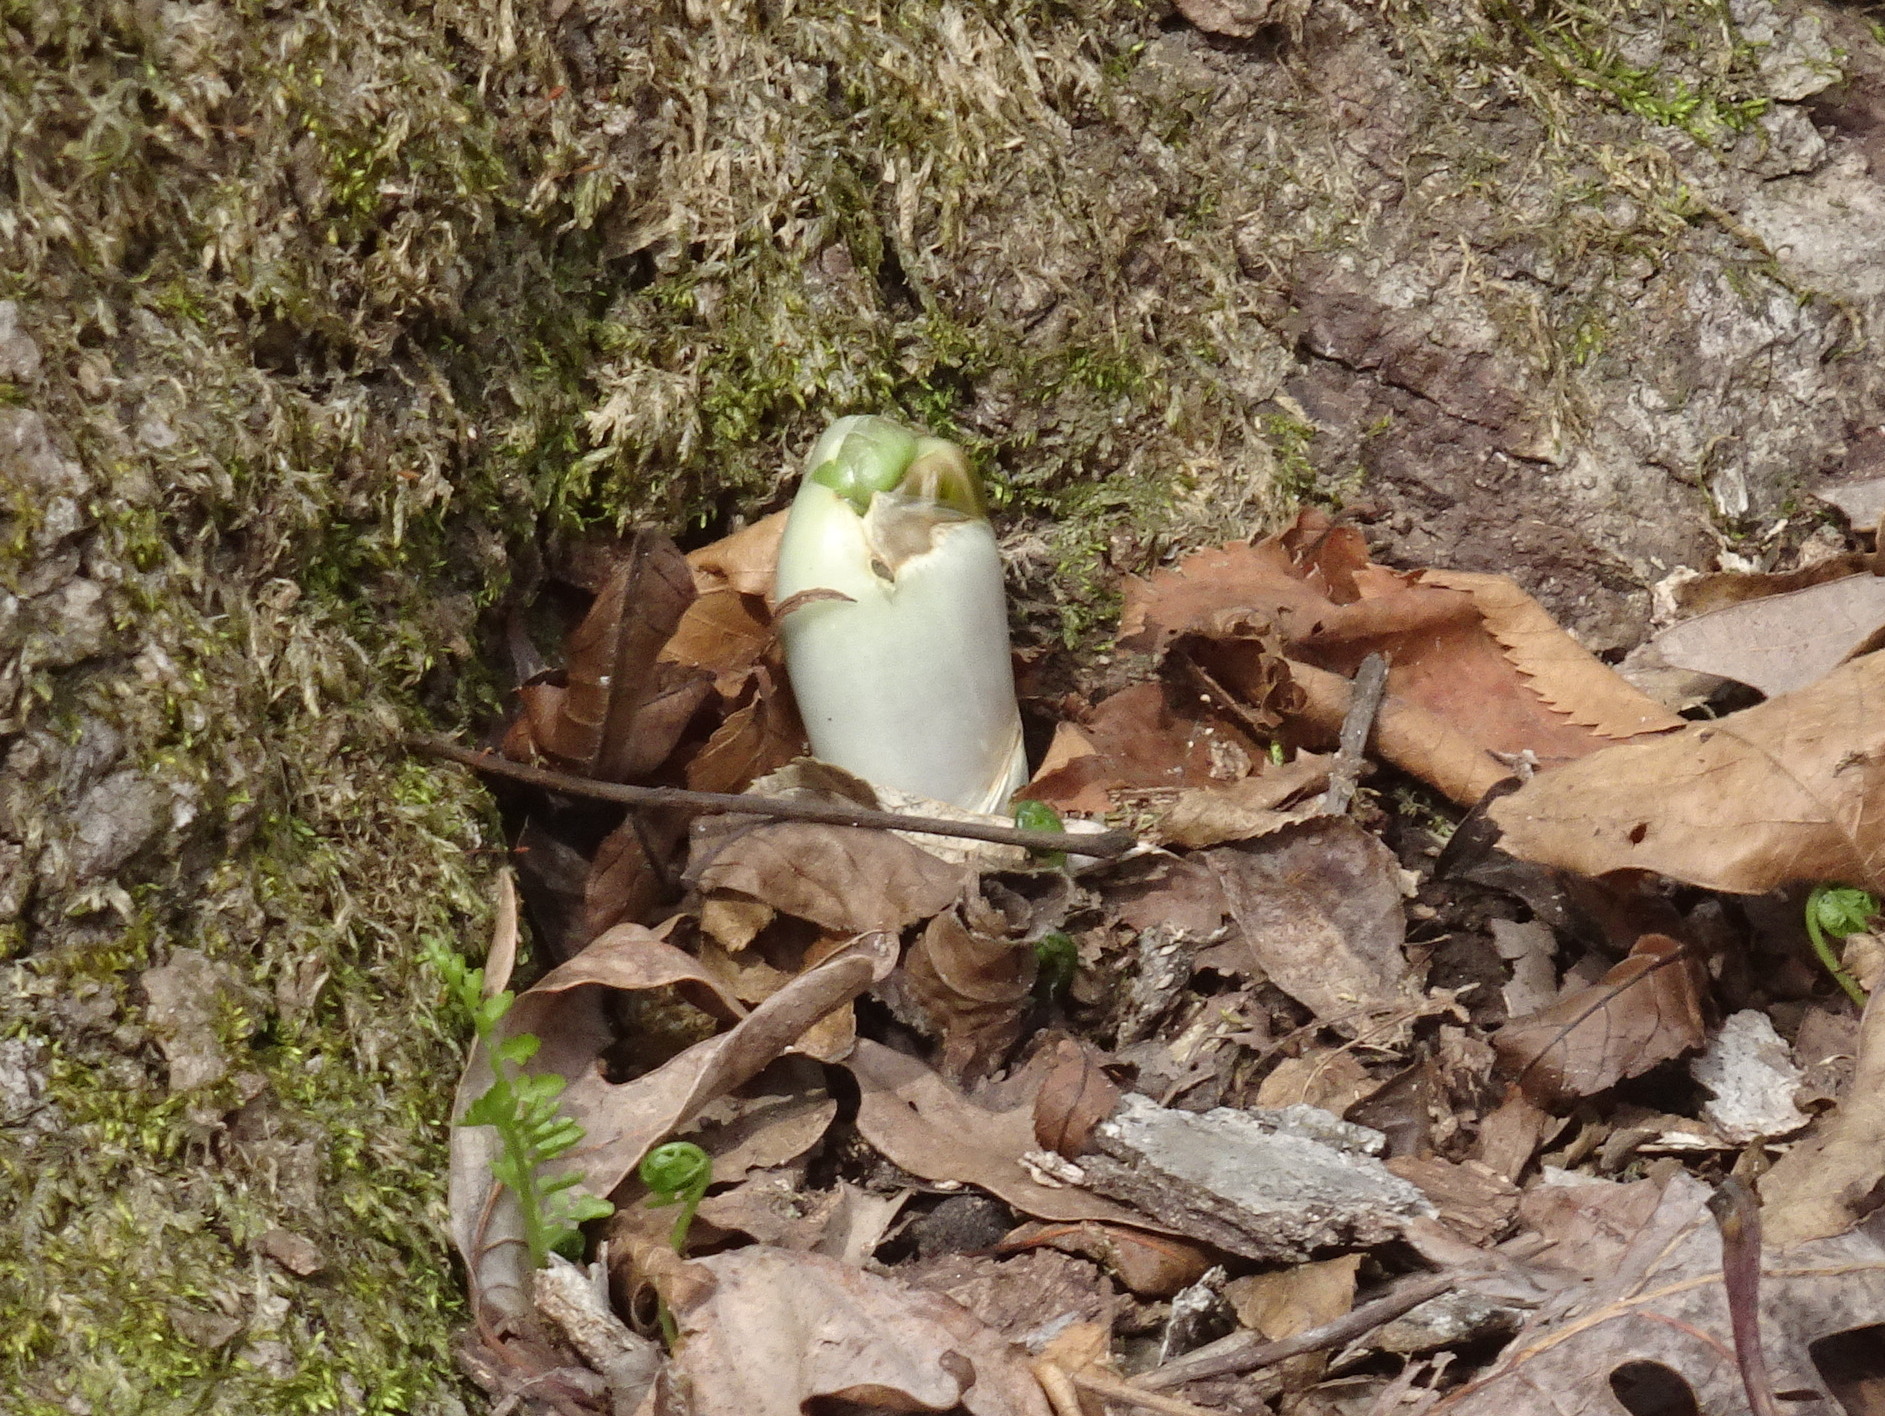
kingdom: Plantae
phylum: Tracheophyta
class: Magnoliopsida
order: Ranunculales
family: Berberidaceae
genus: Podophyllum
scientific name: Podophyllum peltatum
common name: Wild mandrake
